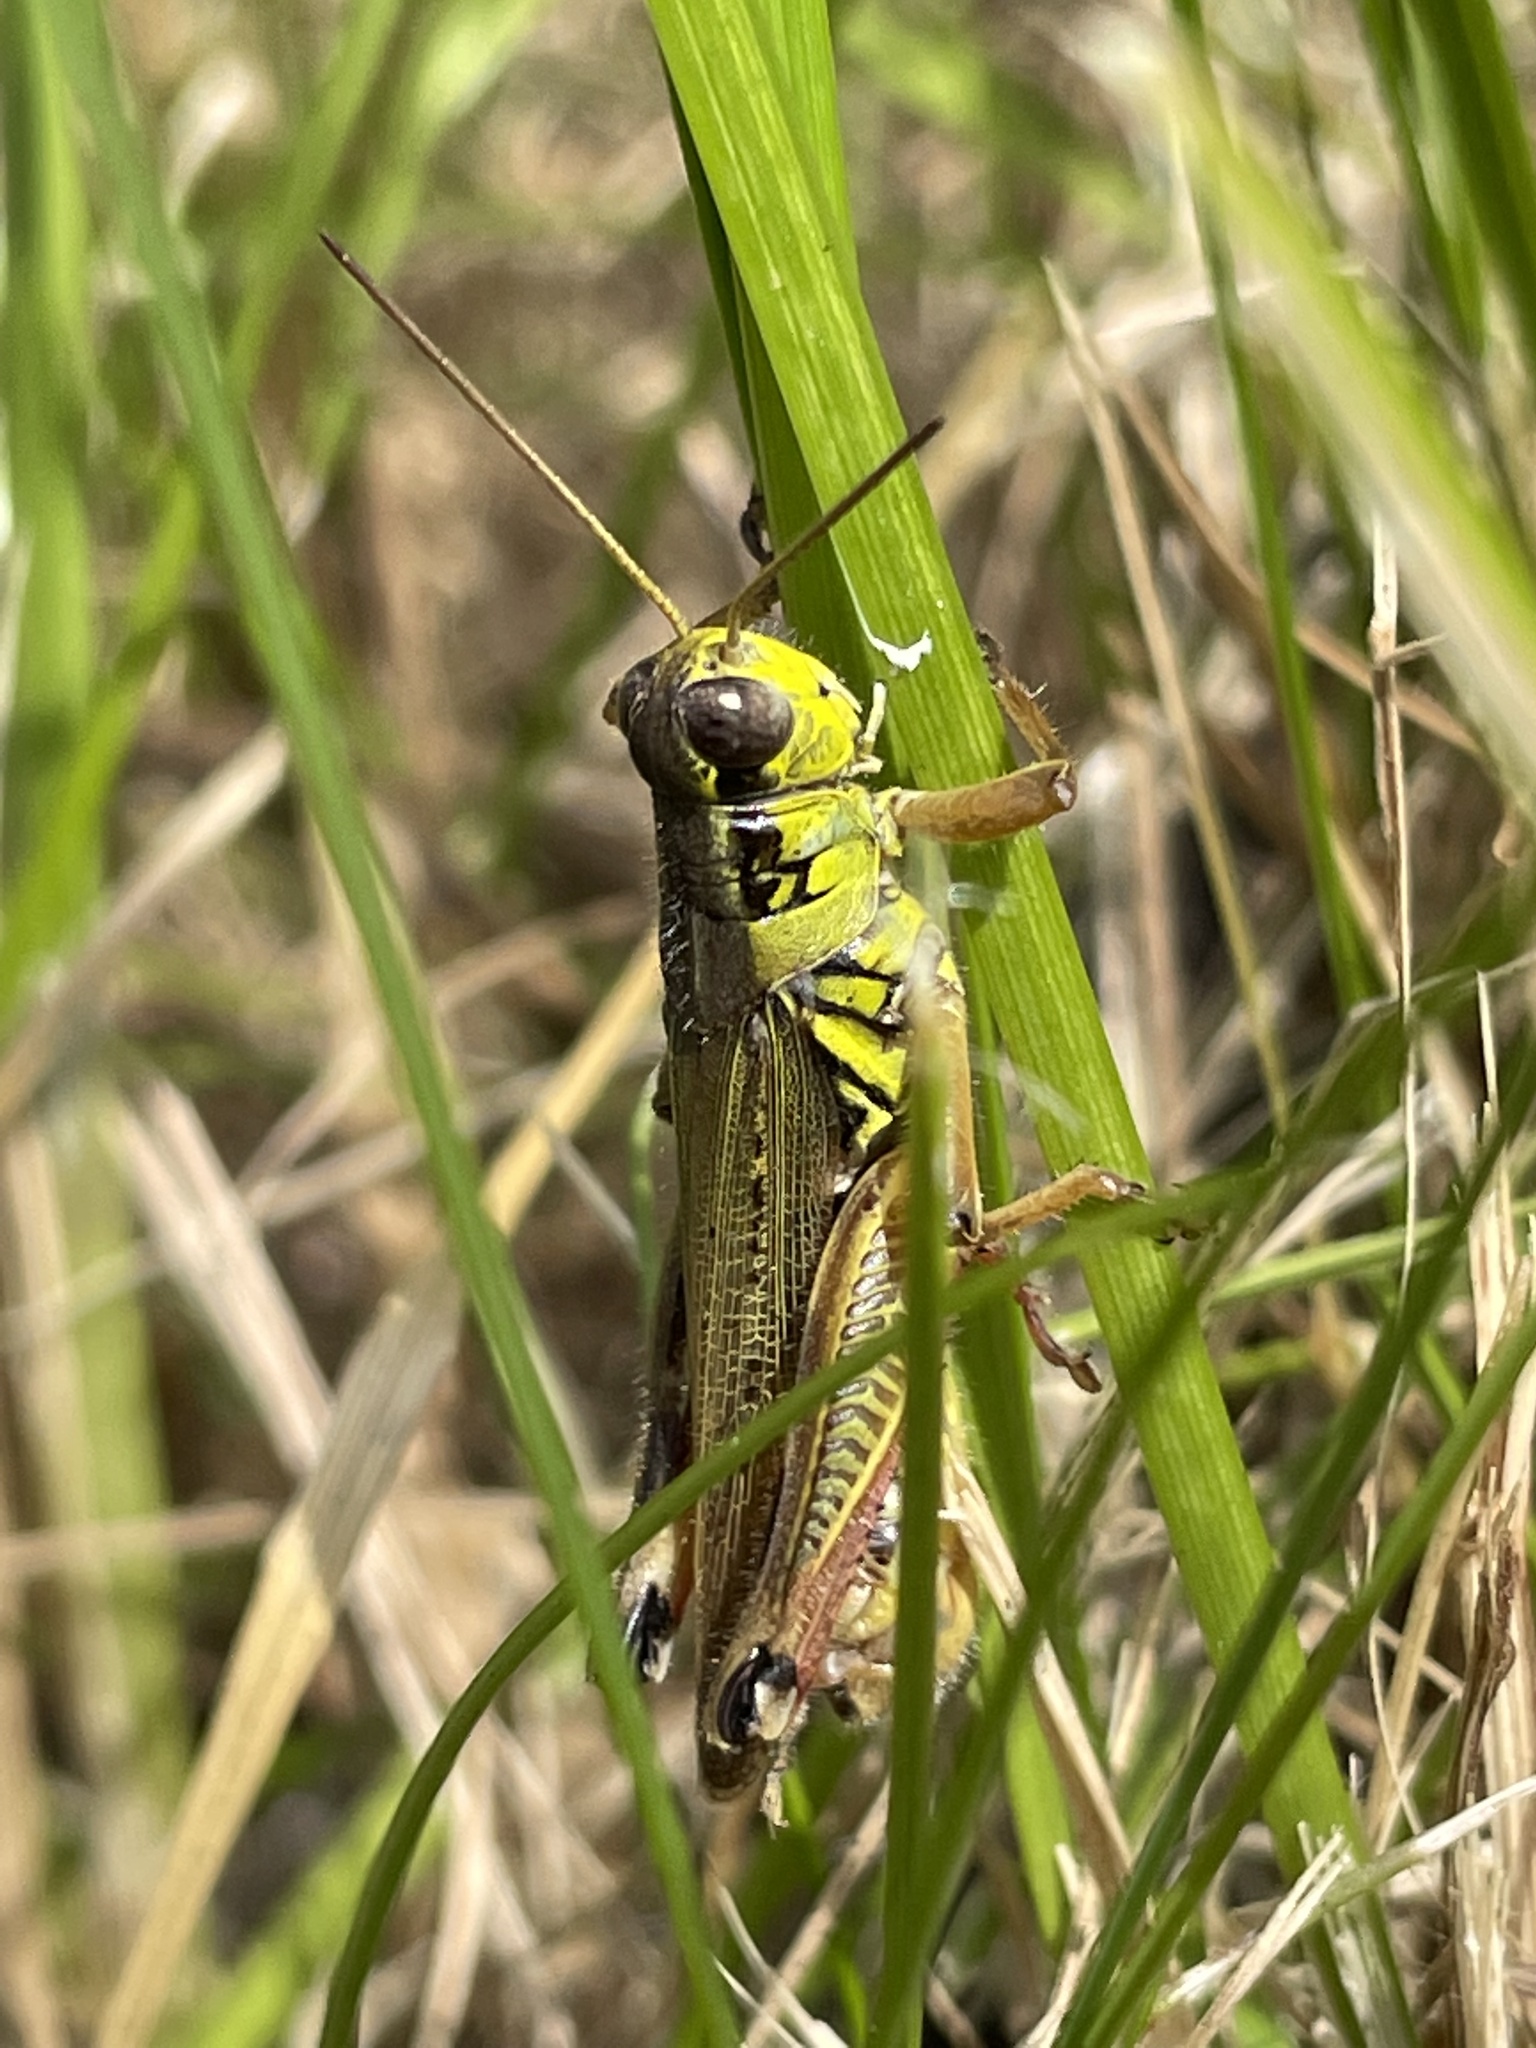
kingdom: Animalia
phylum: Arthropoda
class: Insecta
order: Orthoptera
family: Acrididae
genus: Melanoplus
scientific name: Melanoplus femurrubrum
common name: Red-legged grasshopper
